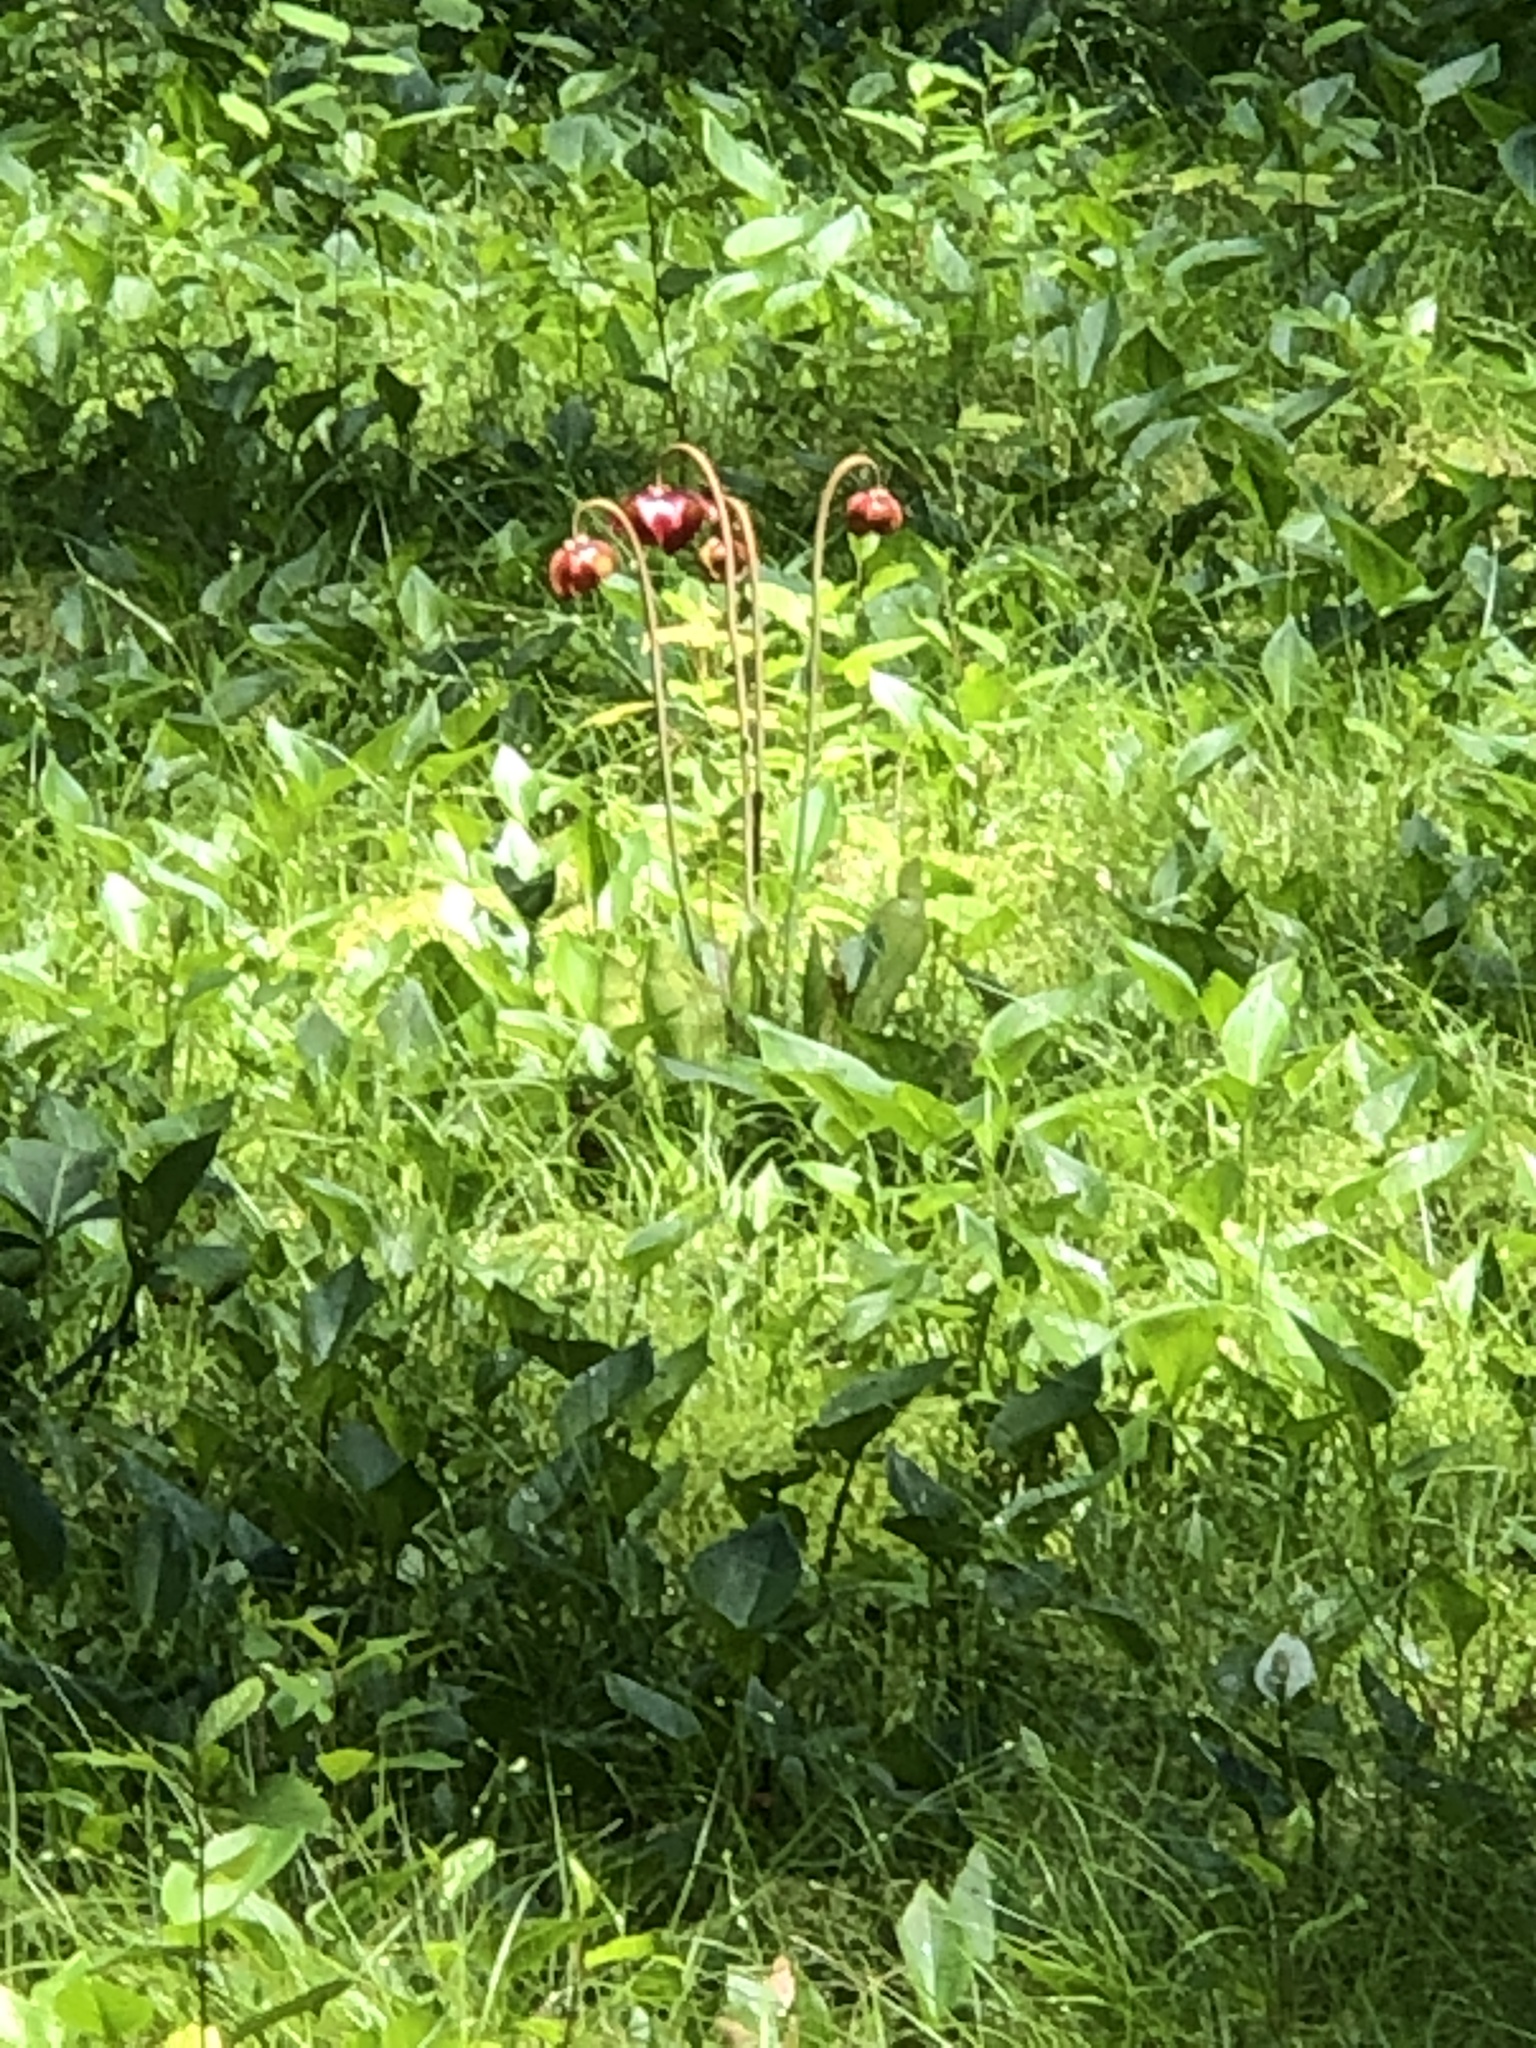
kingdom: Plantae
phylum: Tracheophyta
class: Magnoliopsida
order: Ericales
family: Sarraceniaceae
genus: Sarracenia
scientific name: Sarracenia purpurea
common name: Pitcherplant
